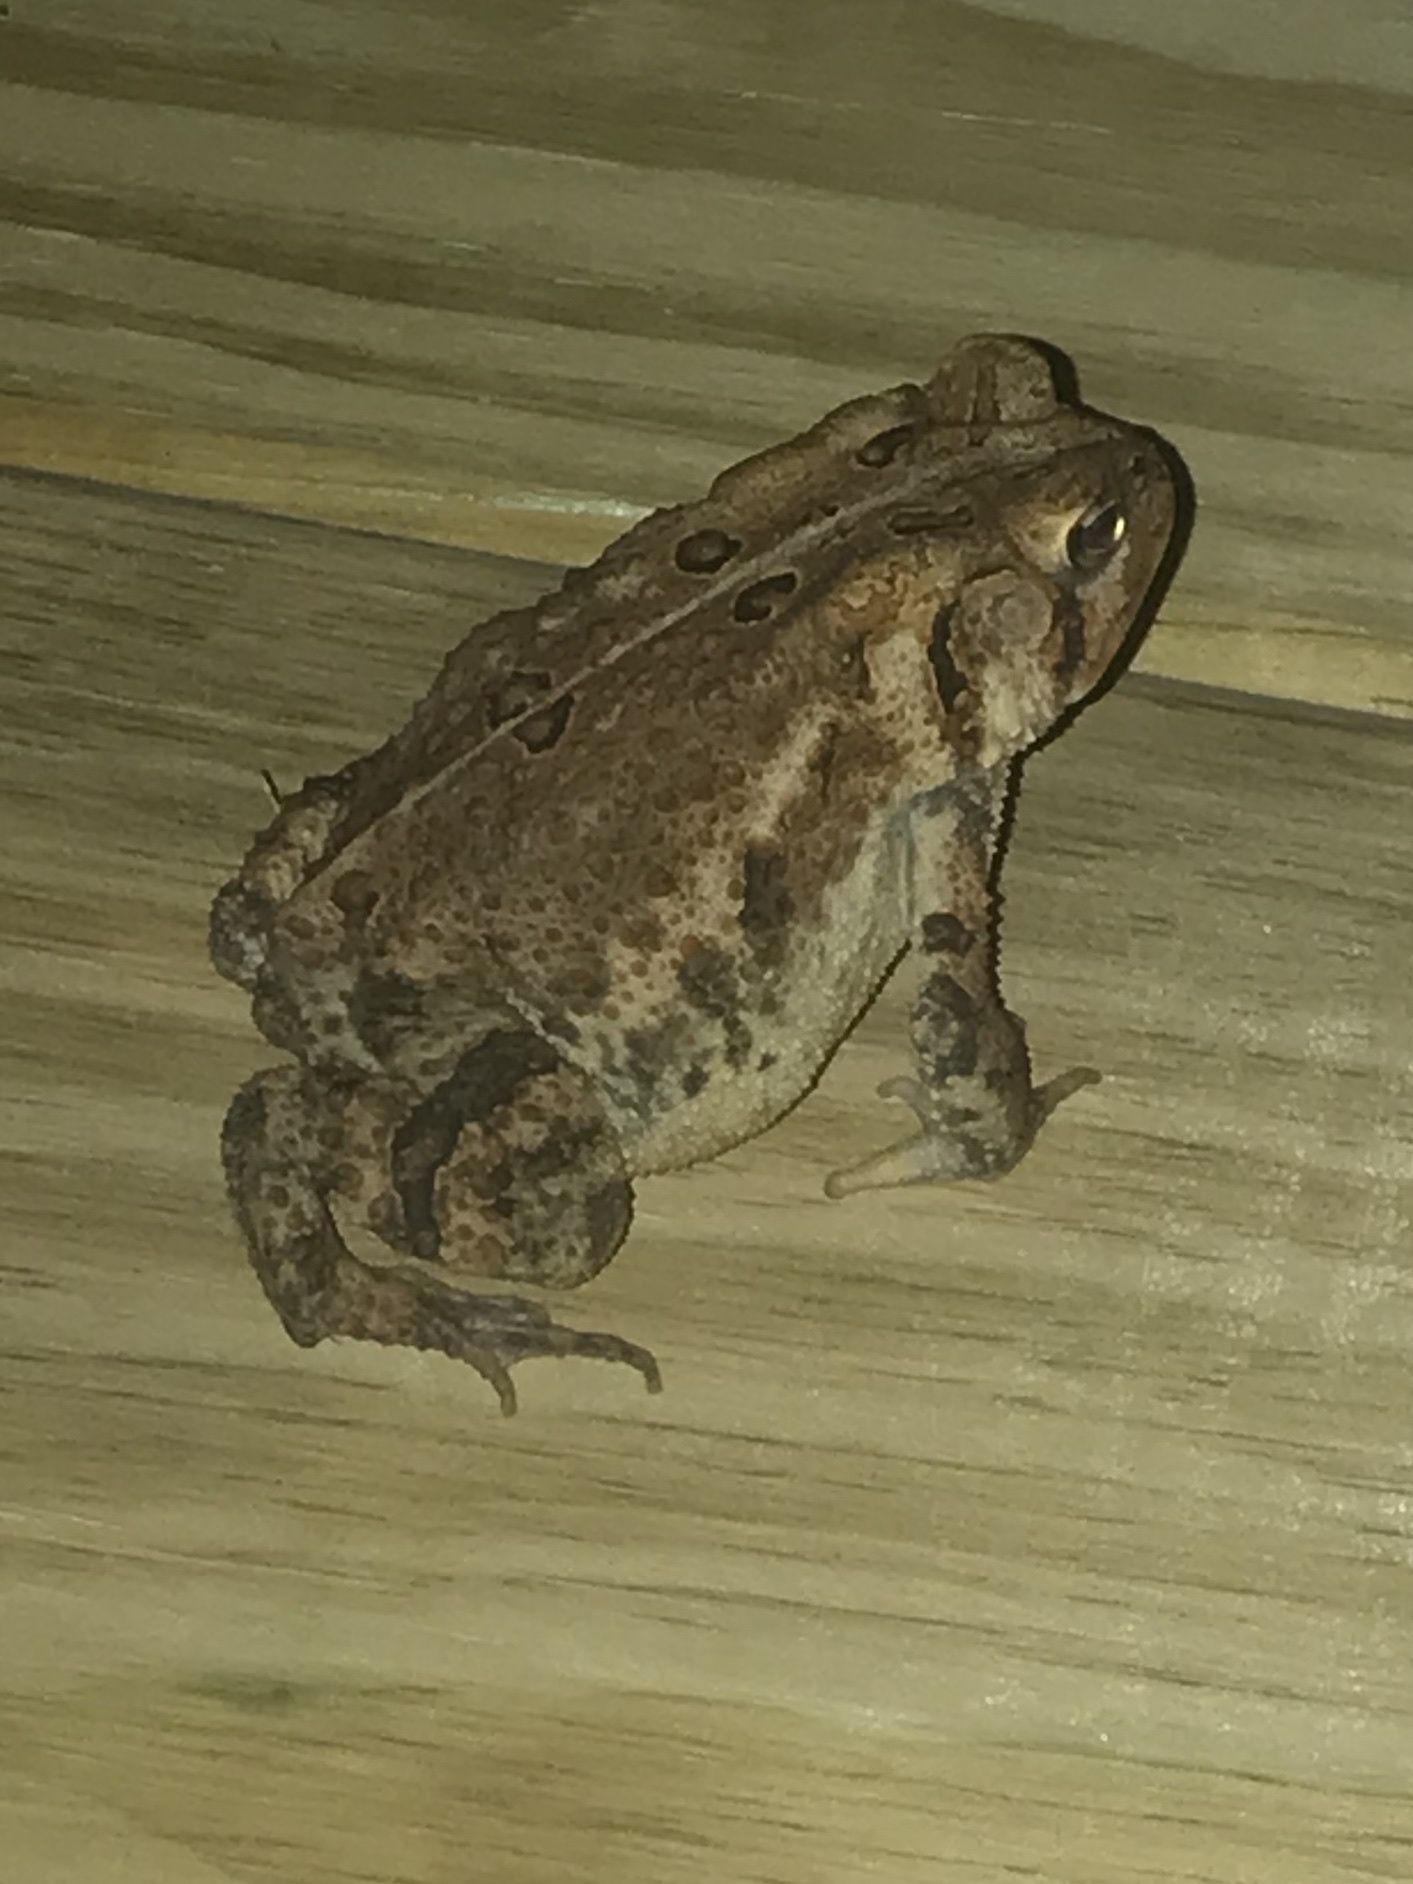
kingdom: Animalia
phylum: Chordata
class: Amphibia
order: Anura
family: Bufonidae
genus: Anaxyrus
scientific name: Anaxyrus americanus
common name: American toad
